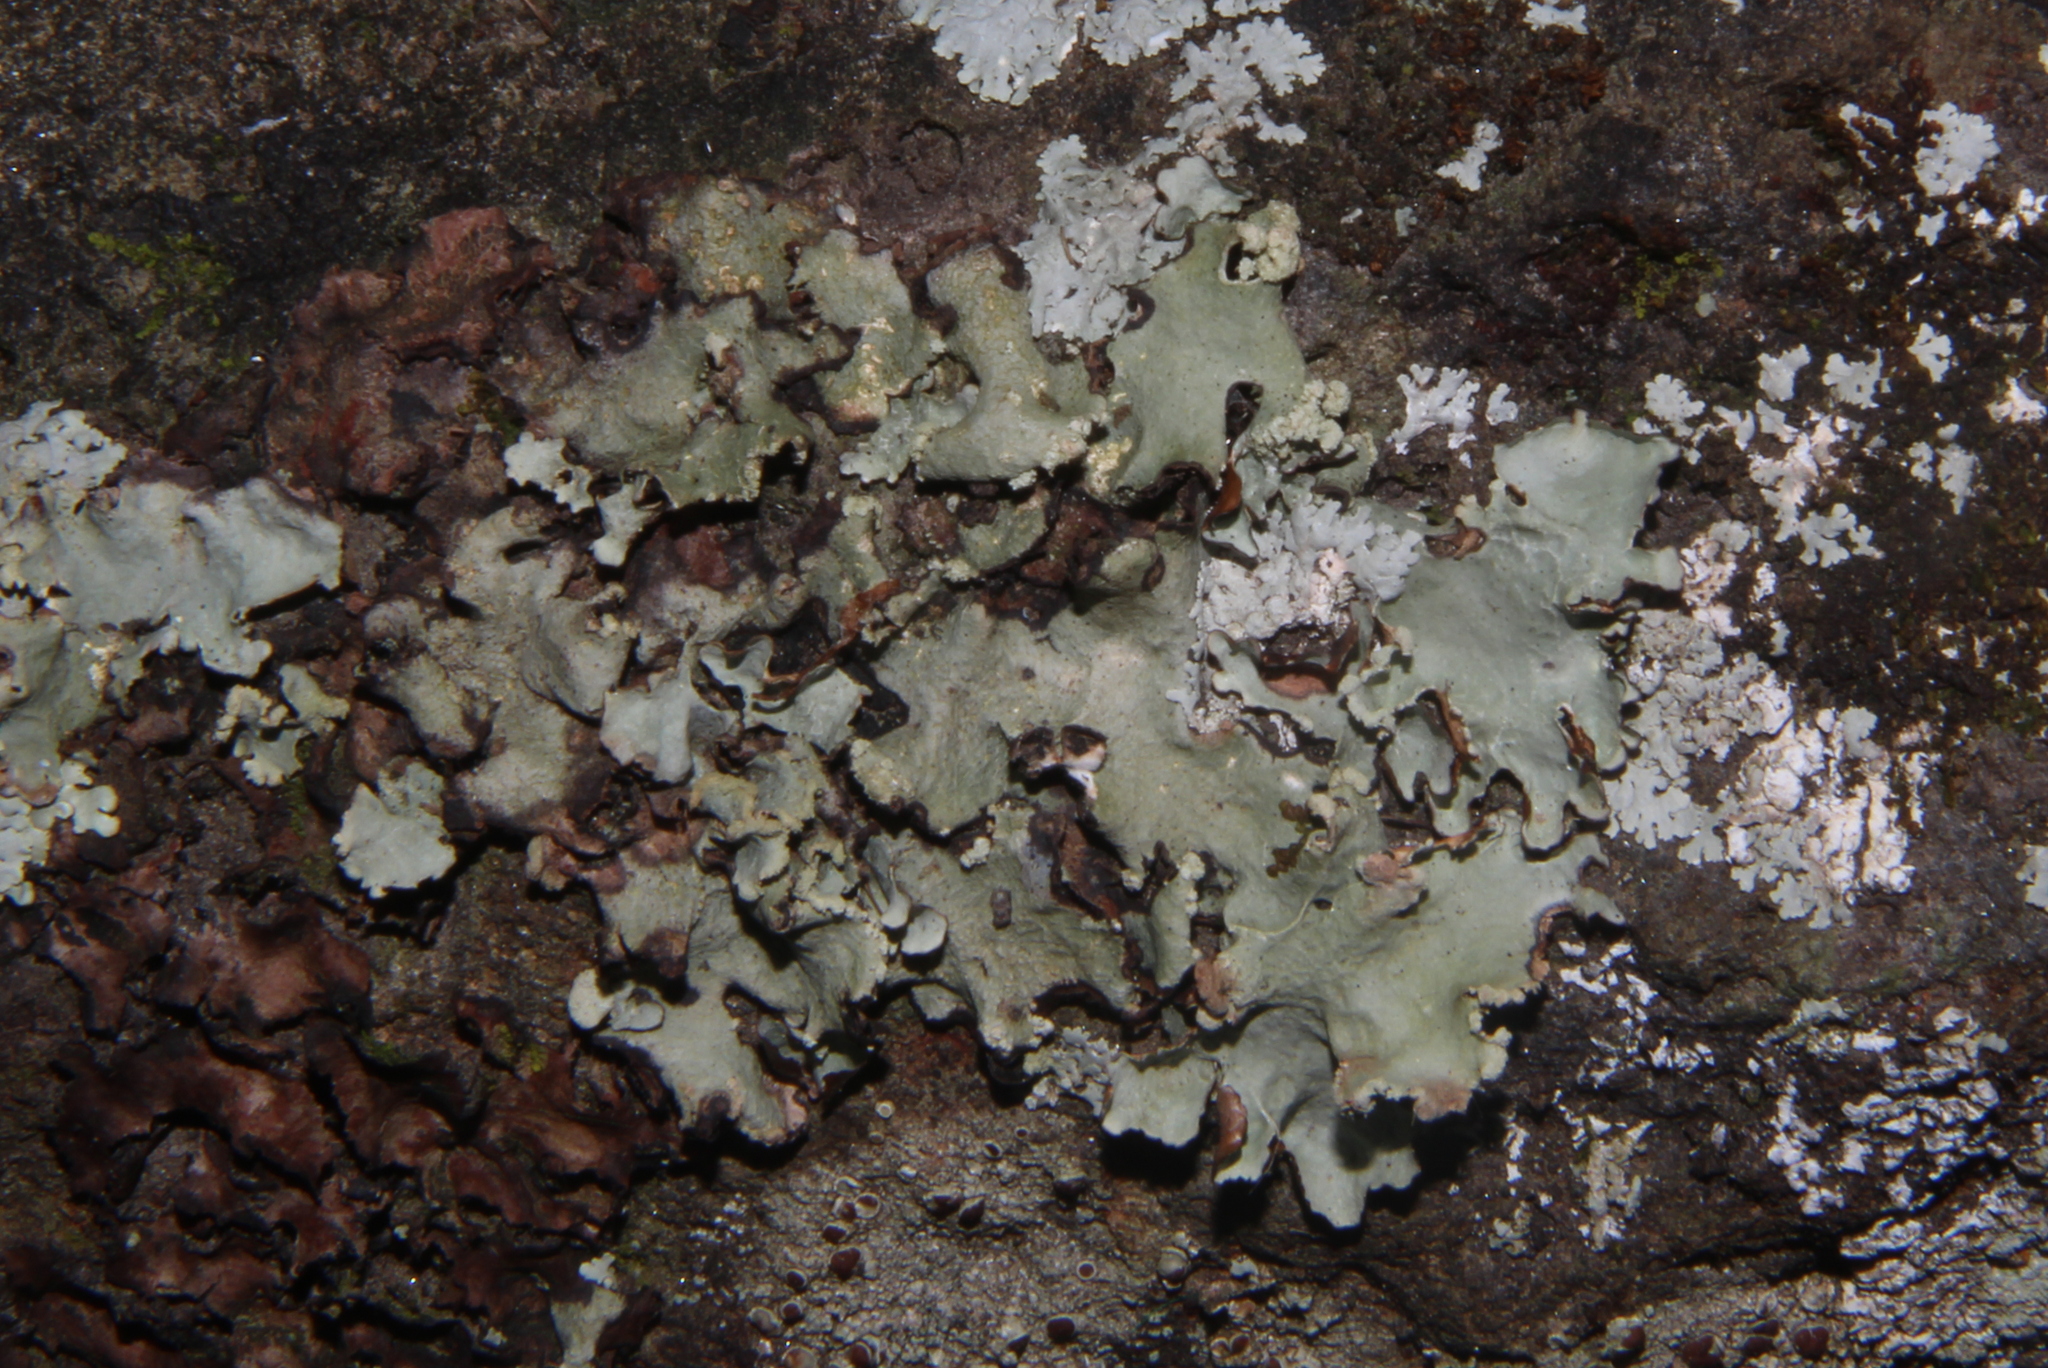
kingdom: Fungi
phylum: Ascomycota
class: Lecanoromycetes
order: Lecanorales
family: Parmeliaceae
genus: Parmotrema
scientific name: Parmotrema tinctorum
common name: Old gray ruffles
